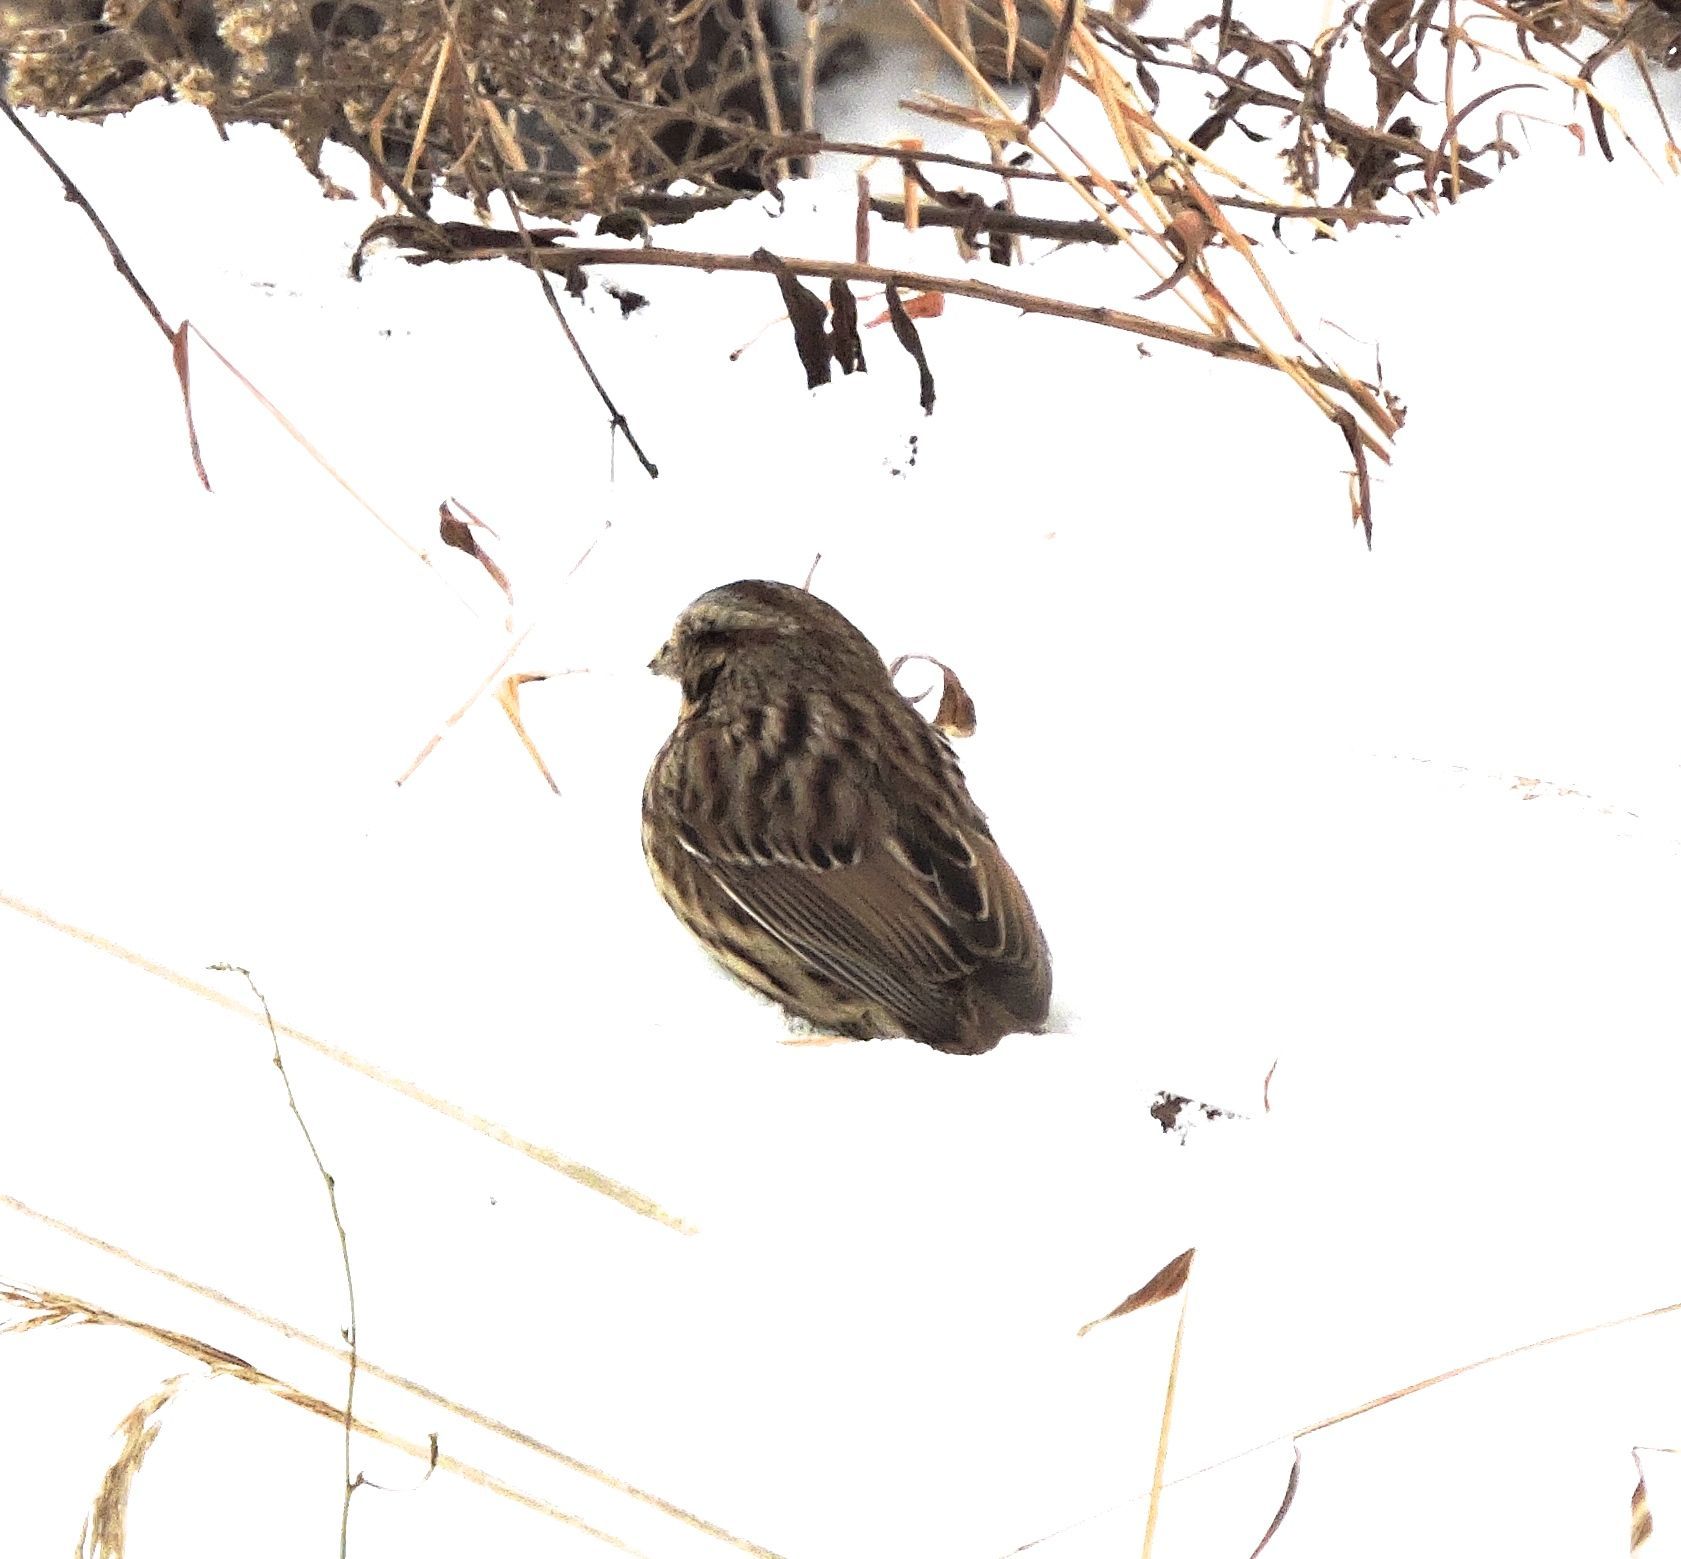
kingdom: Animalia
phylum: Chordata
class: Aves
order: Passeriformes
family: Passerellidae
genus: Melospiza
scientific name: Melospiza melodia
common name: Song sparrow
